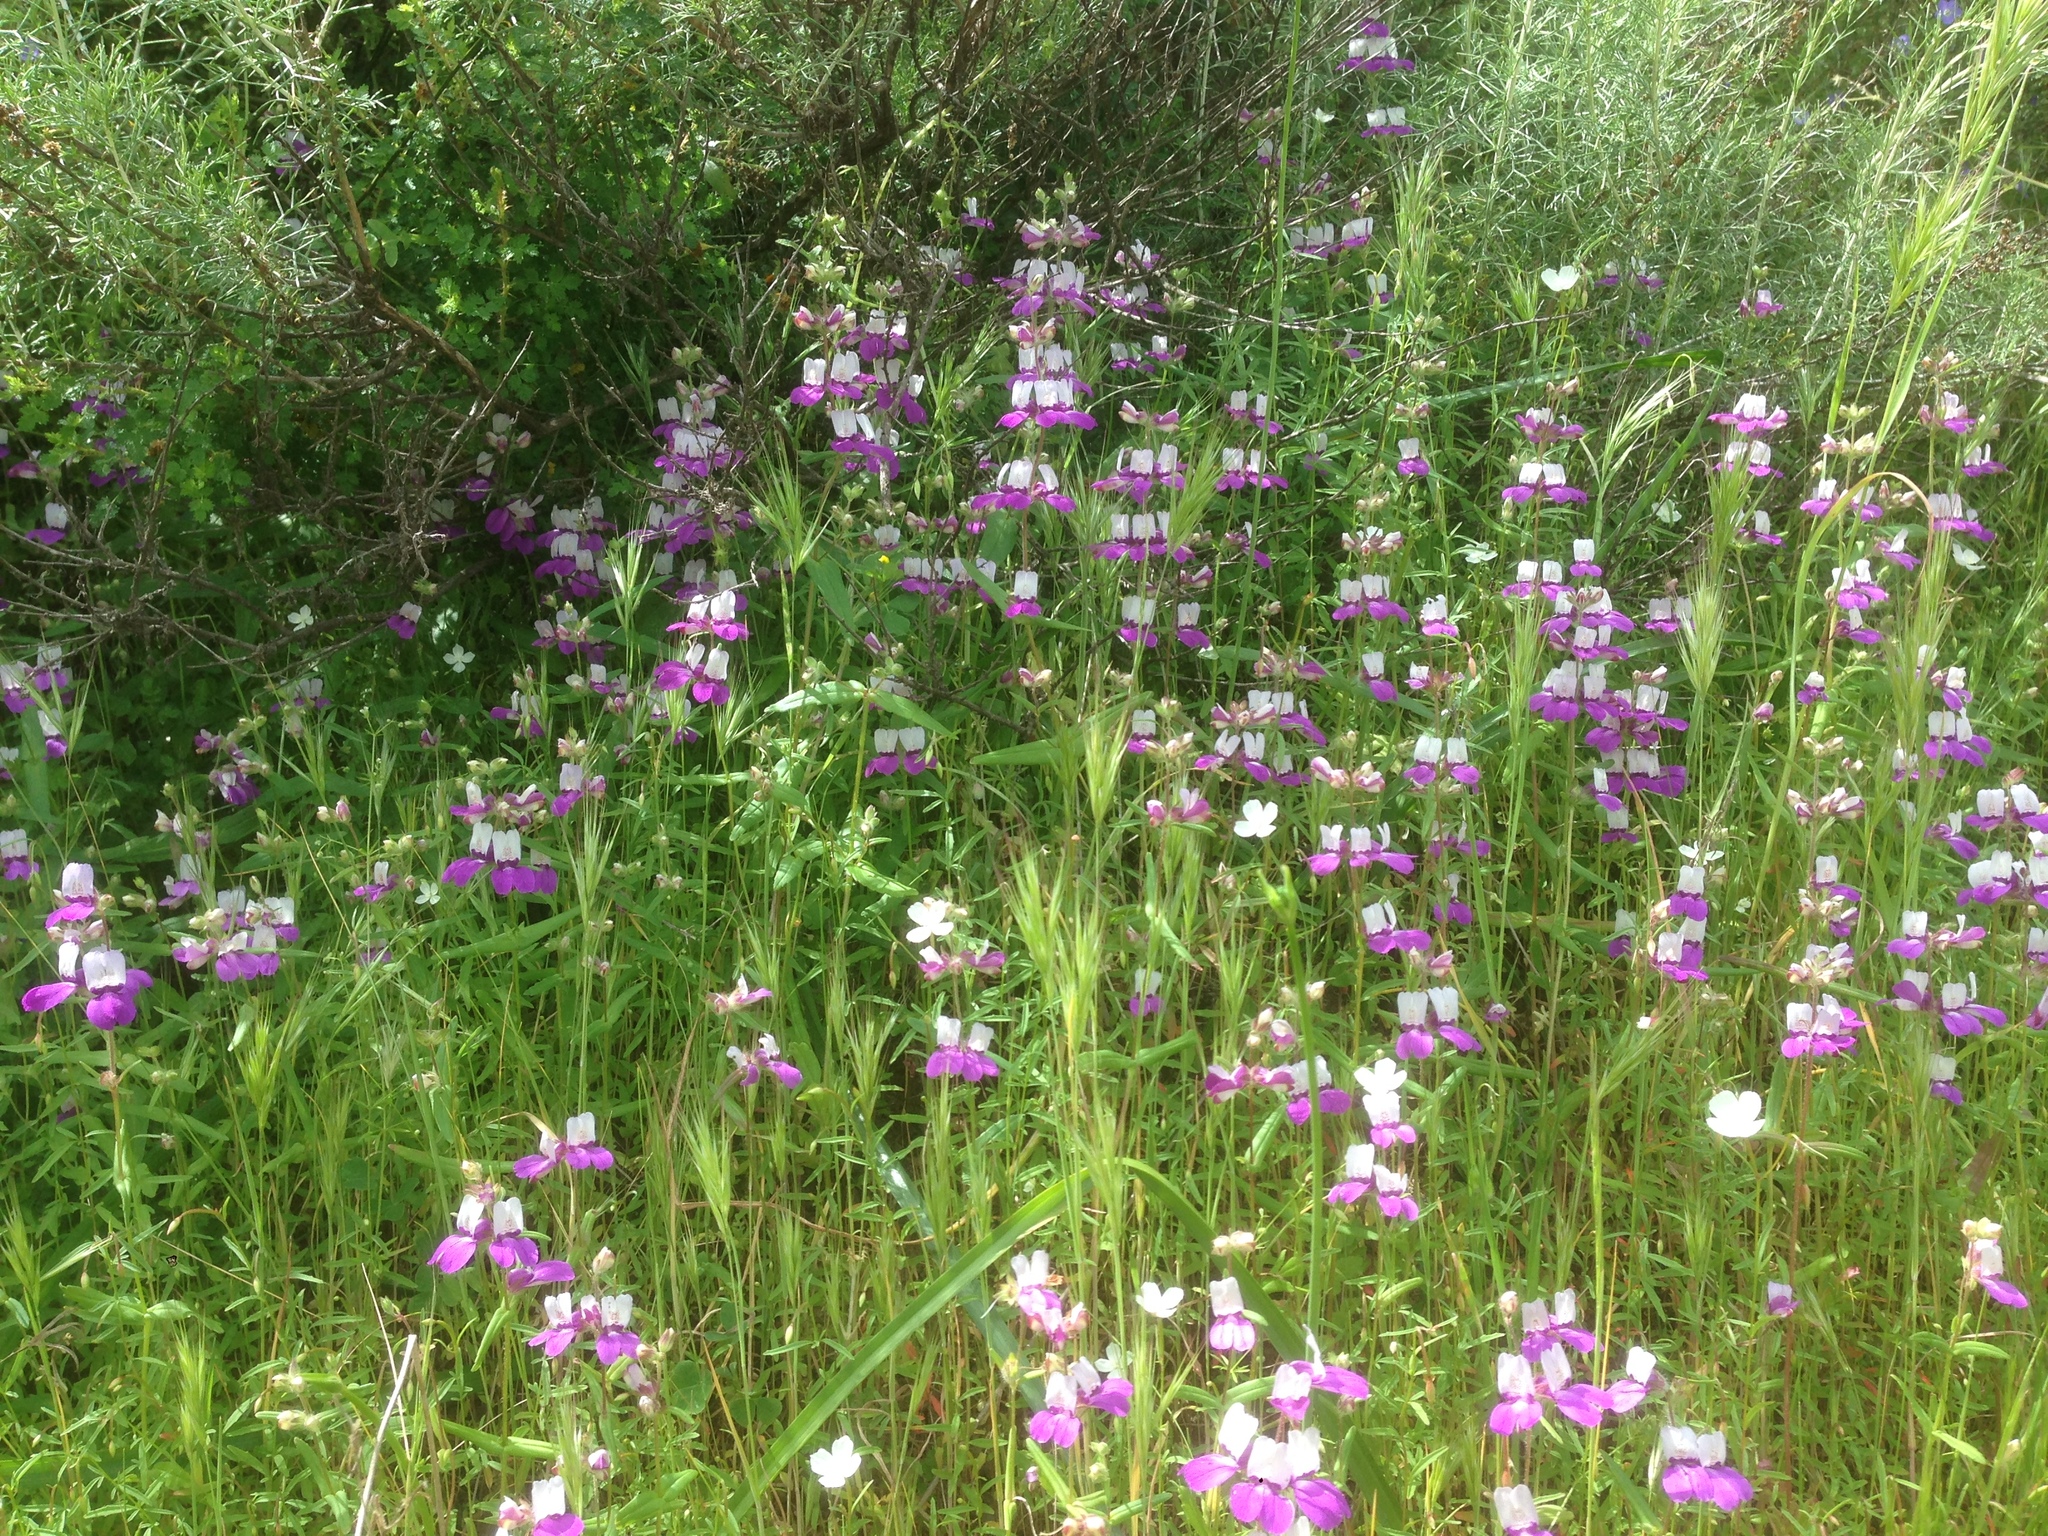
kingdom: Plantae
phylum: Tracheophyta
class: Magnoliopsida
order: Lamiales
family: Plantaginaceae
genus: Collinsia
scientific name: Collinsia heterophylla
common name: Chinese-houses
